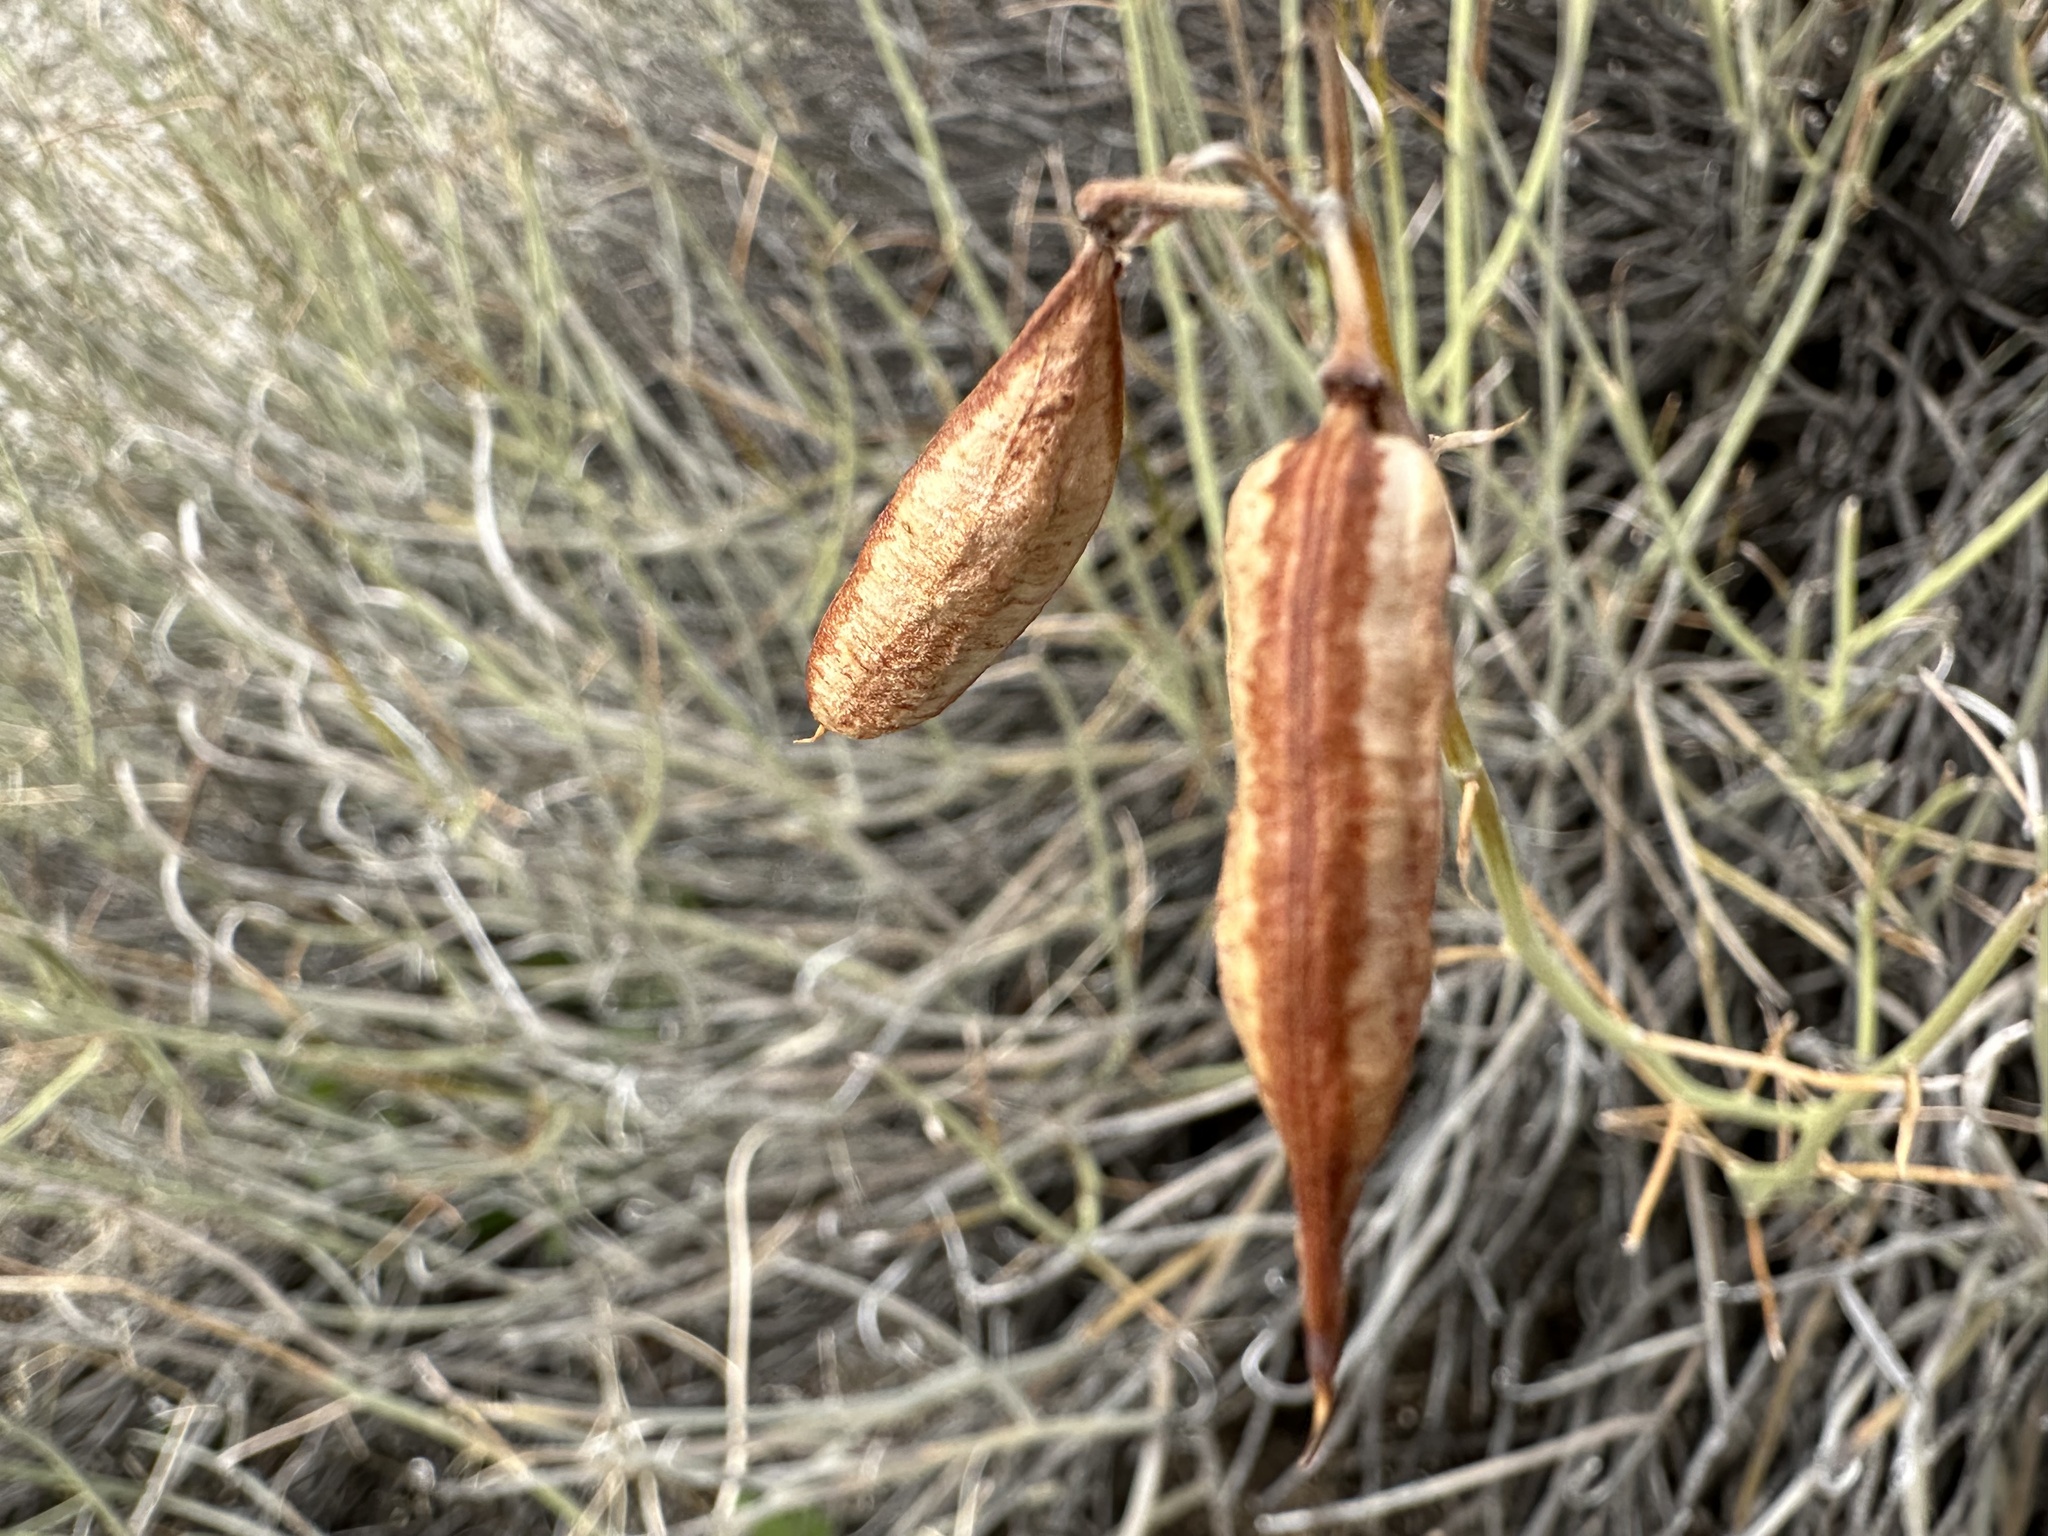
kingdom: Plantae
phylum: Tracheophyta
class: Magnoliopsida
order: Fabales
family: Fabaceae
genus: Senna
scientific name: Senna armata
